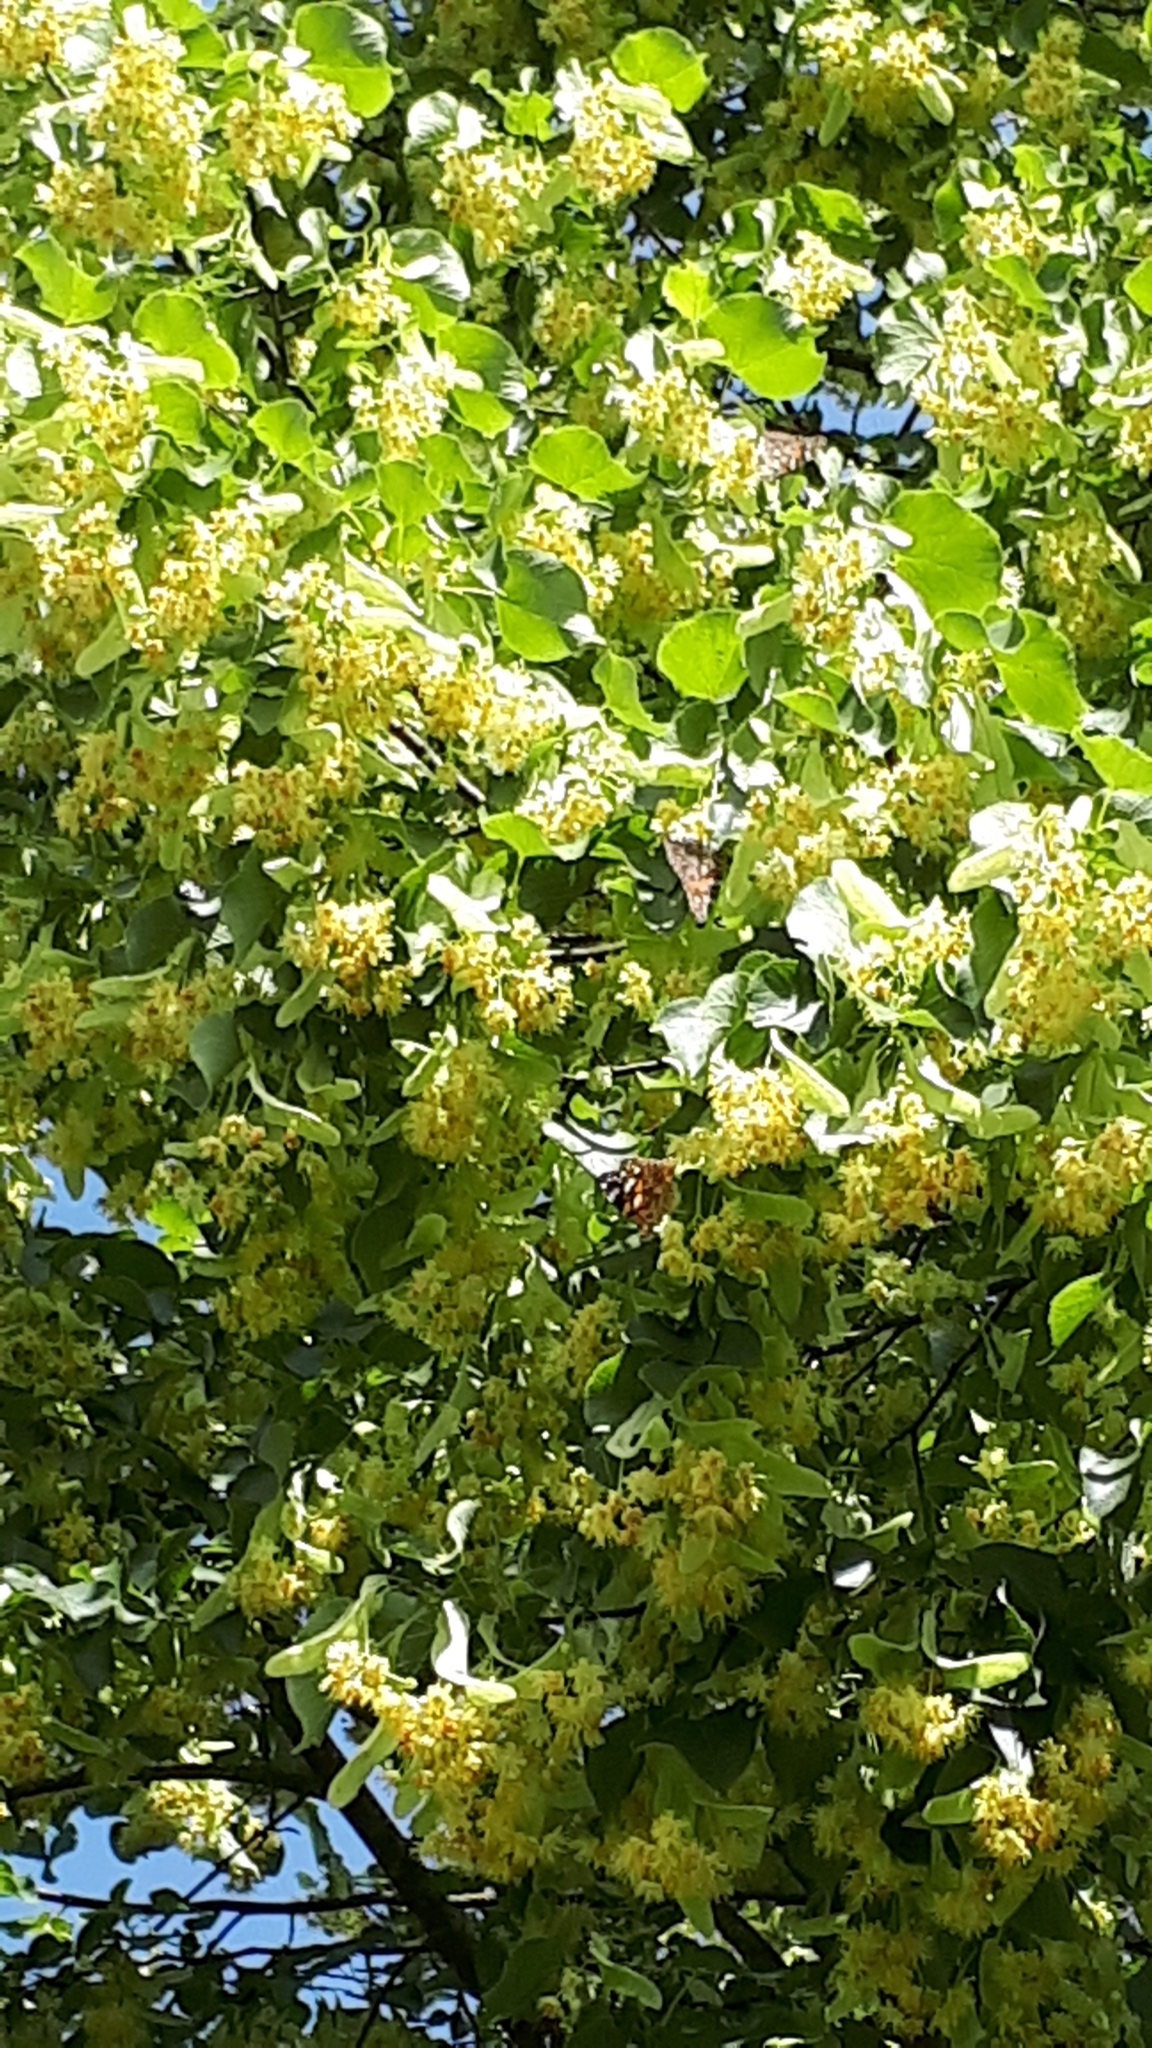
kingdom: Animalia
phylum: Arthropoda
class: Insecta
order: Lepidoptera
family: Nymphalidae
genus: Vanessa
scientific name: Vanessa cardui
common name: Painted lady
